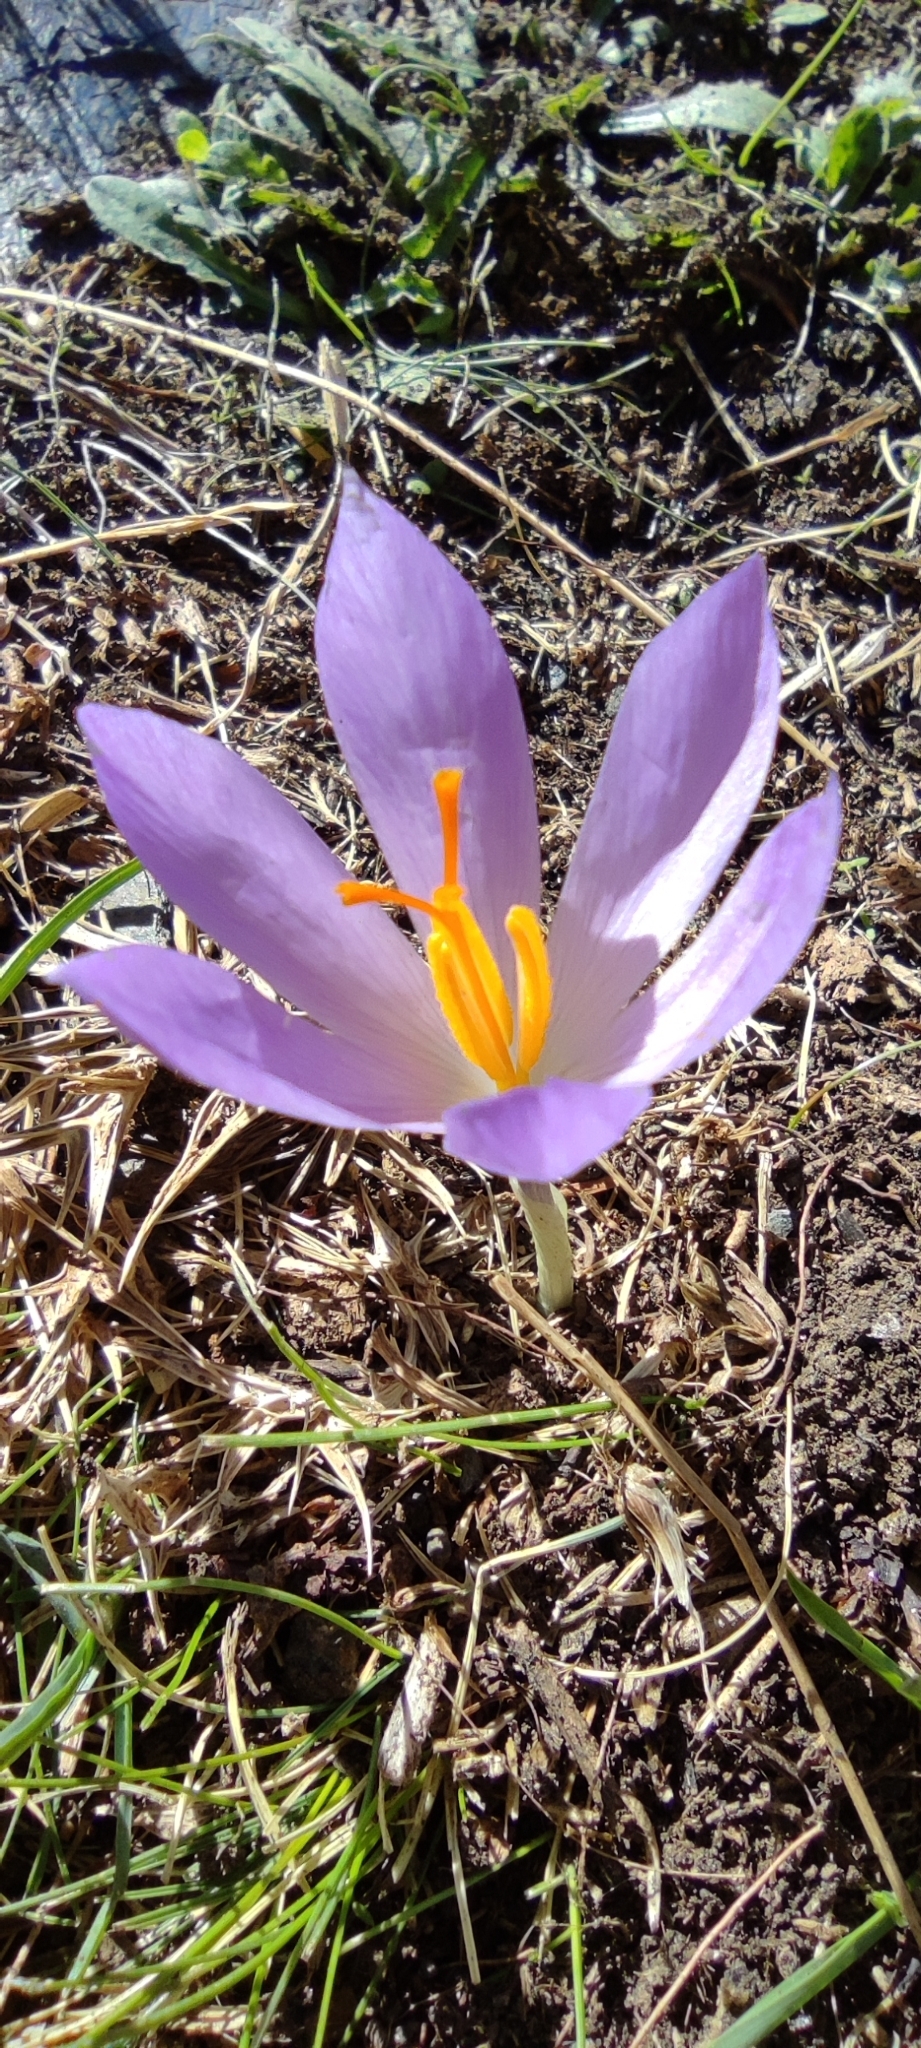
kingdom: Plantae
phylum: Tracheophyta
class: Liliopsida
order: Asparagales
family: Iridaceae
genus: Crocus
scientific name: Crocus serotinus
